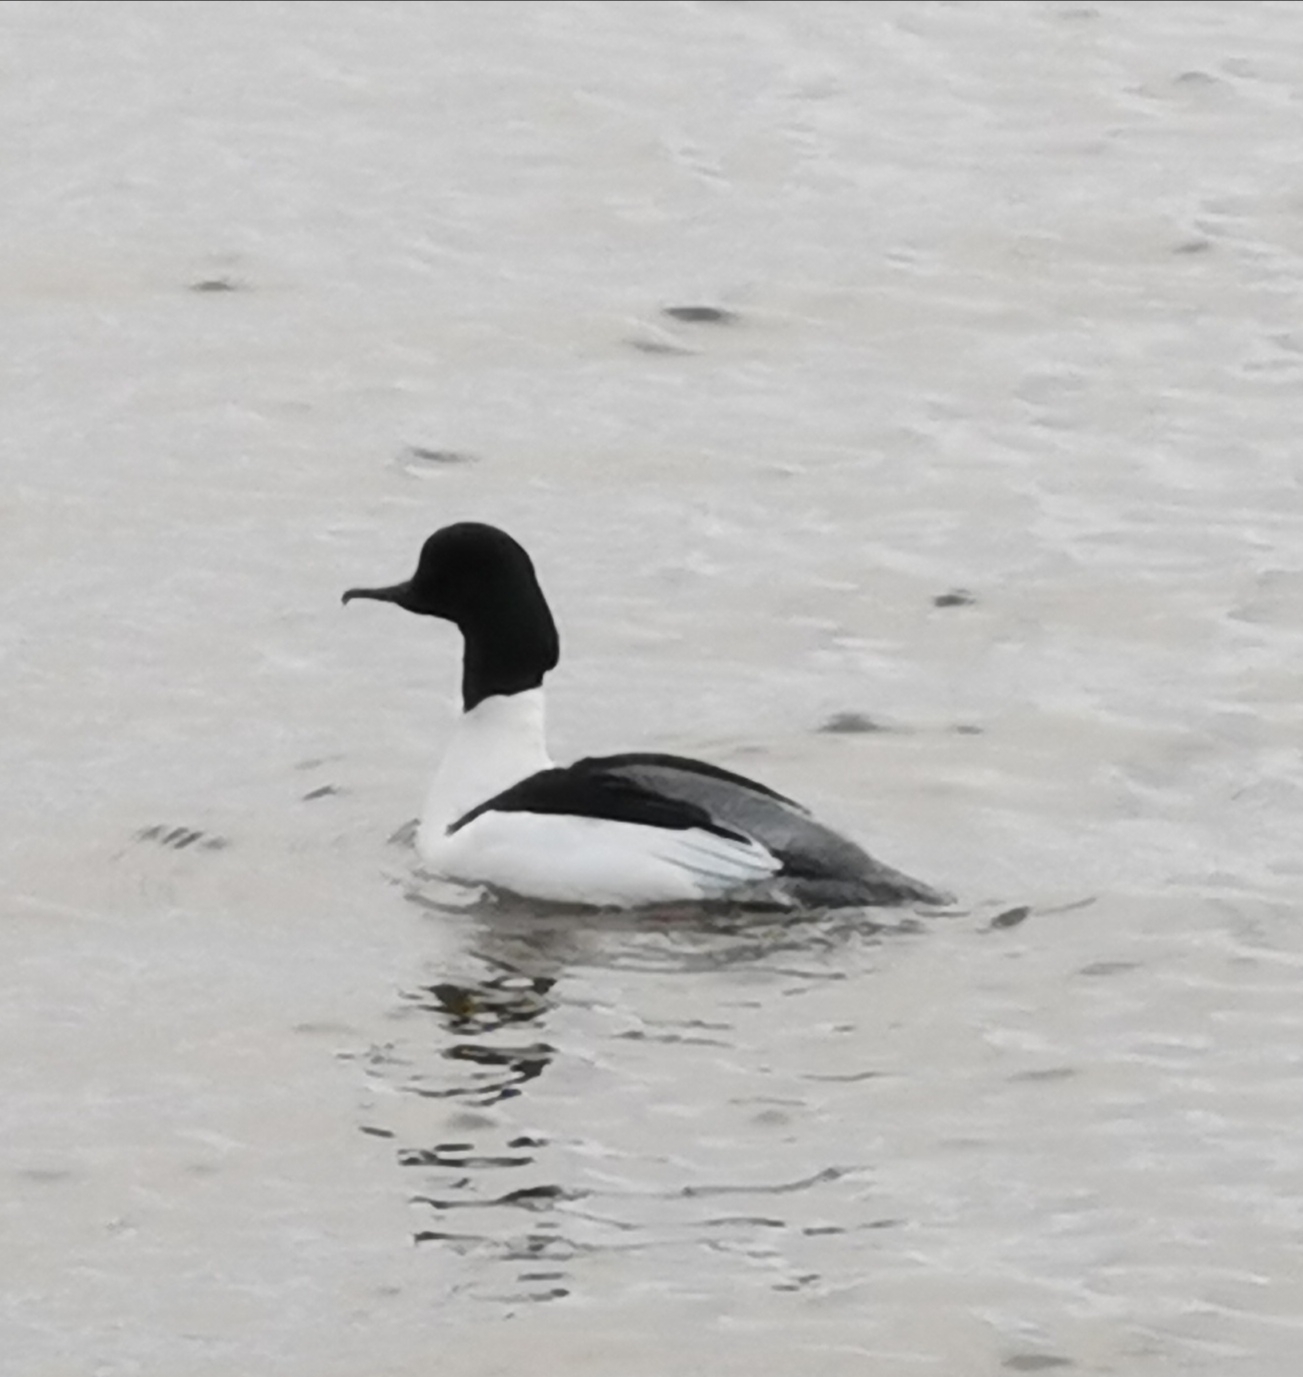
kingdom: Animalia
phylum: Chordata
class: Aves
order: Anseriformes
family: Anatidae
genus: Mergus
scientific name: Mergus merganser
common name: Common merganser
